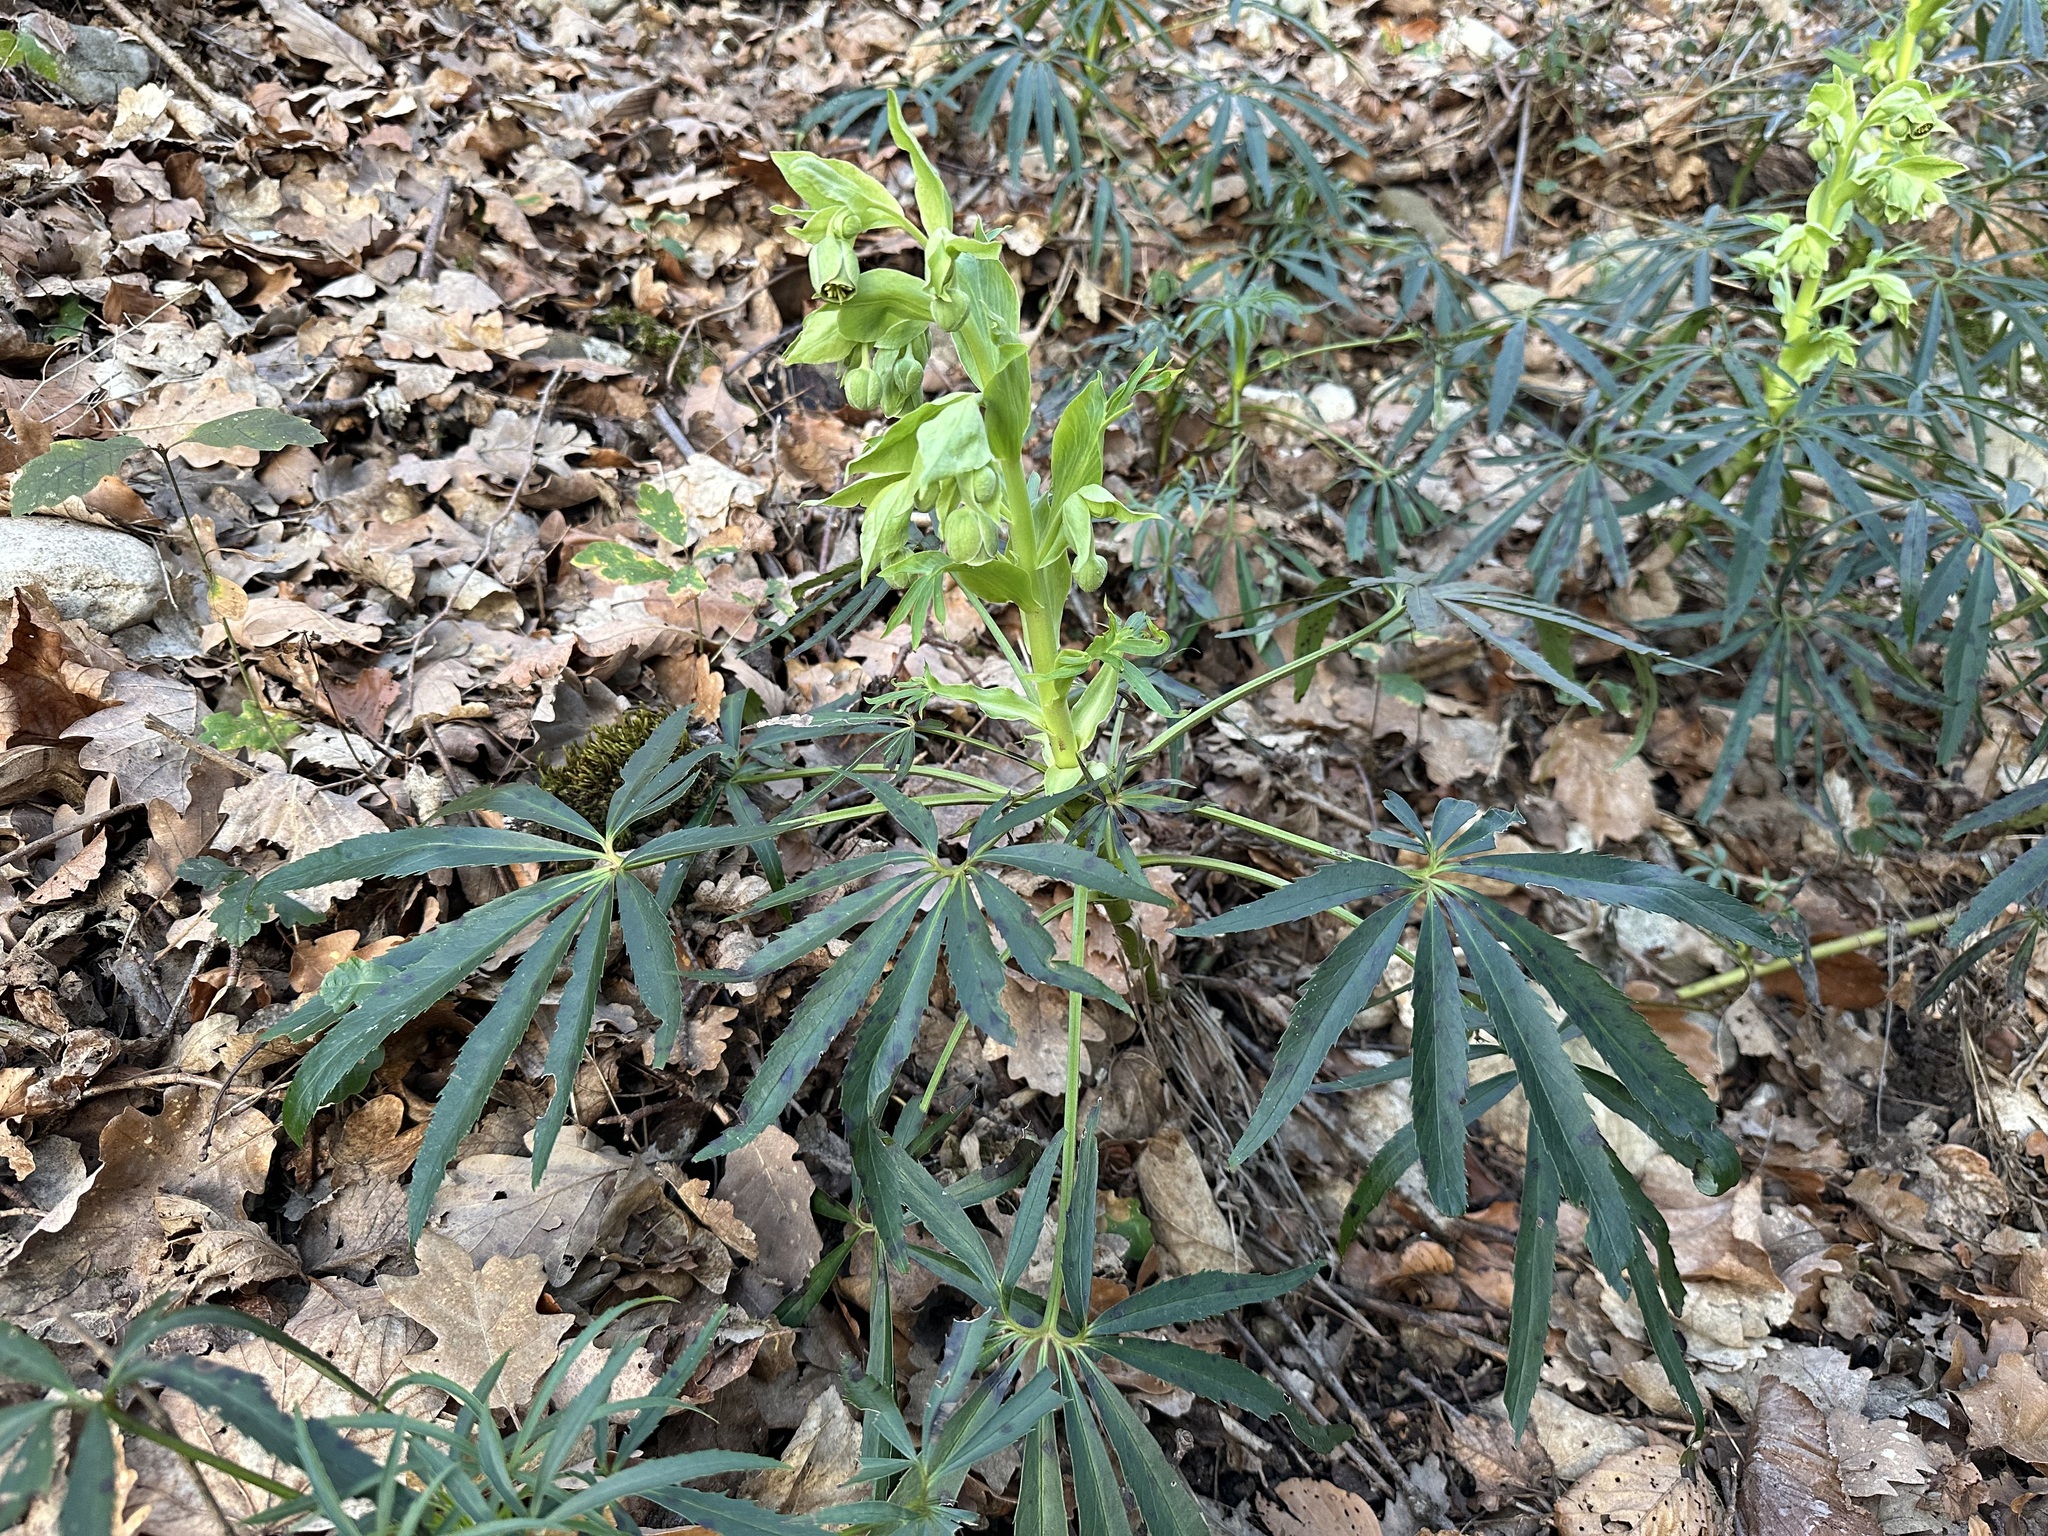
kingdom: Plantae
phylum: Tracheophyta
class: Magnoliopsida
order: Ranunculales
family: Ranunculaceae
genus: Helleborus
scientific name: Helleborus foetidus
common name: Stinking hellebore
